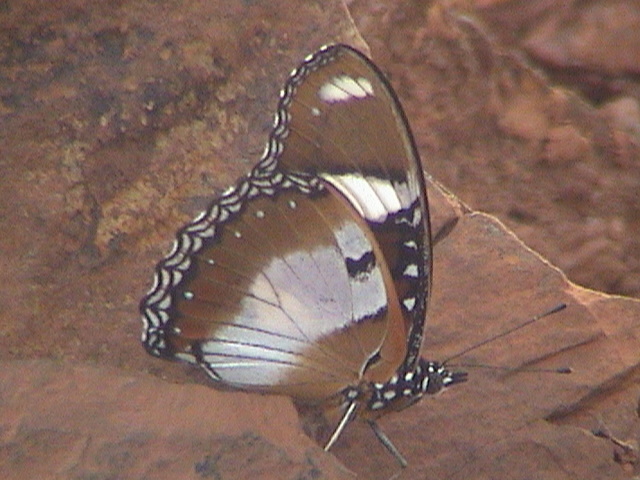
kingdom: Animalia
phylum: Arthropoda
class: Insecta
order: Lepidoptera
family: Nymphalidae
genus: Hypolimnas
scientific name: Hypolimnas misippus
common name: False plain tiger
